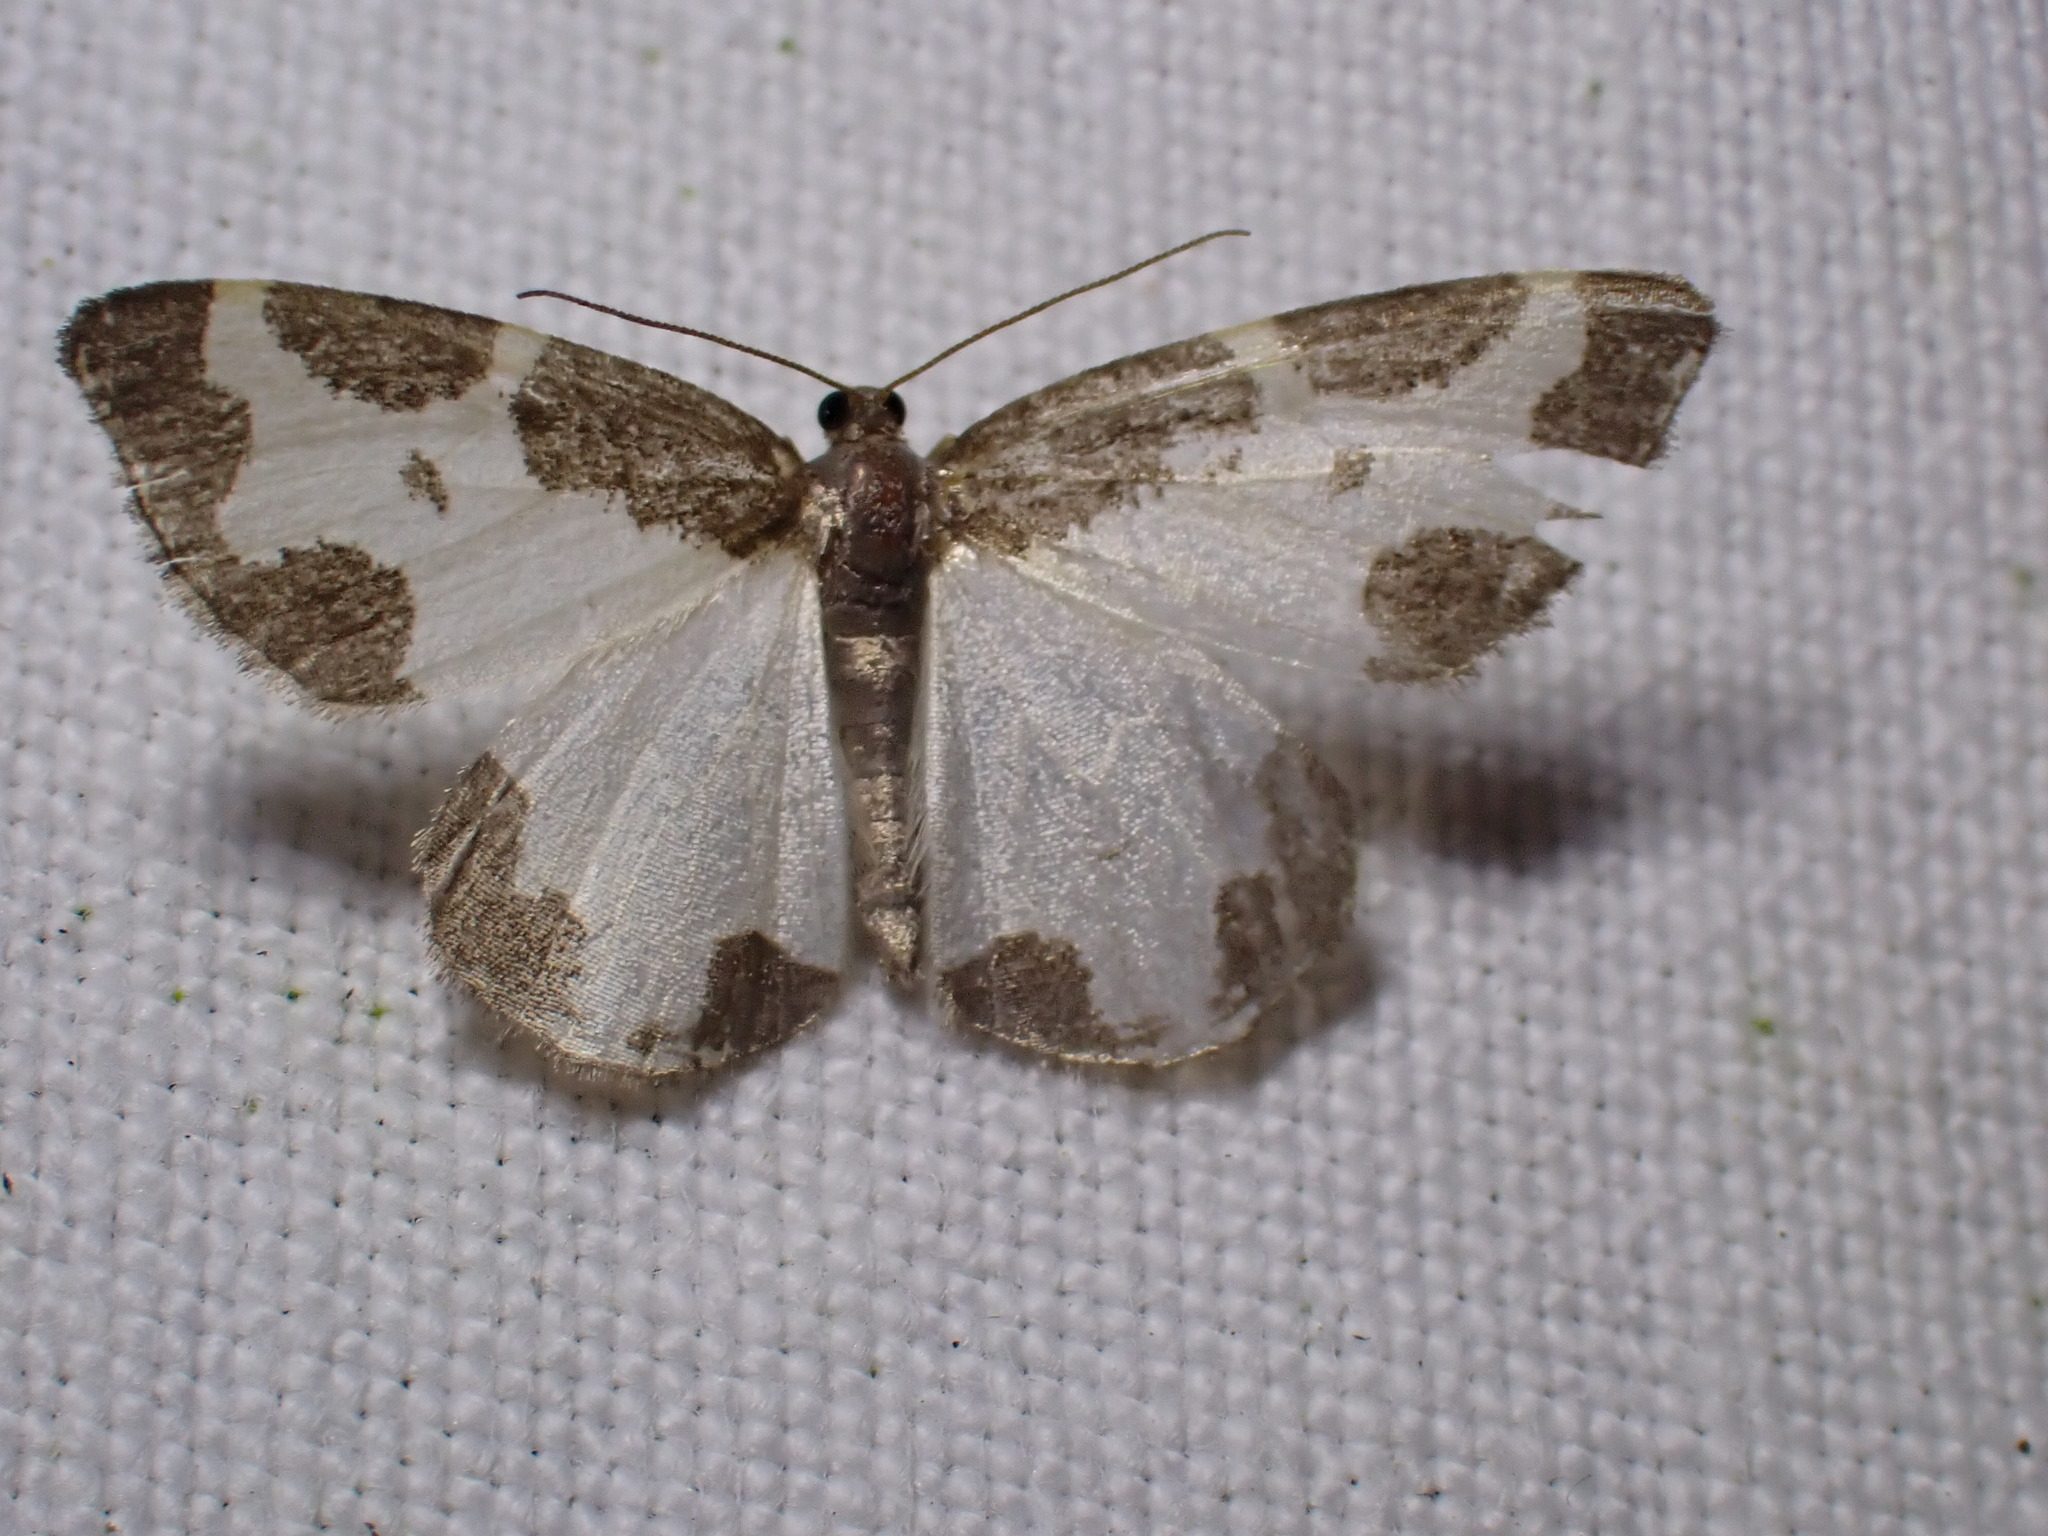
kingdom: Animalia
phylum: Arthropoda
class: Insecta
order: Lepidoptera
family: Geometridae
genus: Lomaspilis
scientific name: Lomaspilis marginata
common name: Clouded border
